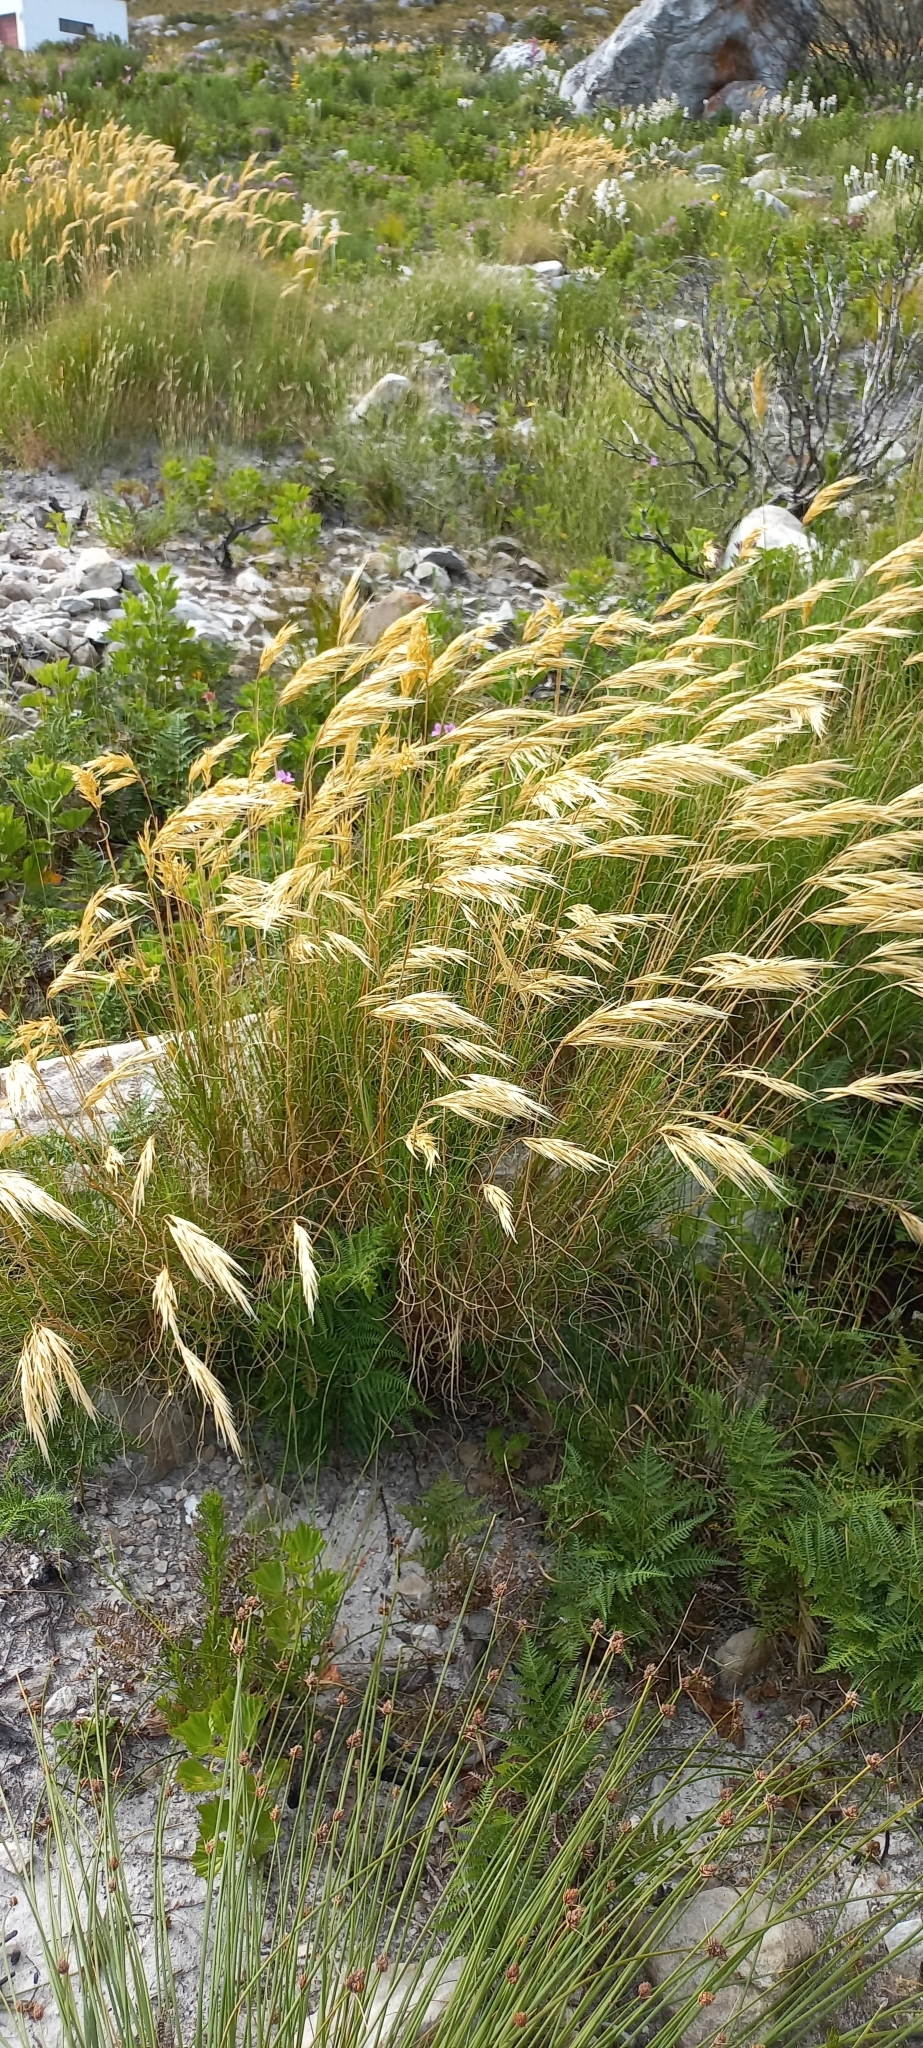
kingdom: Plantae
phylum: Tracheophyta
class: Liliopsida
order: Poales
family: Poaceae
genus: Pseudopentameris
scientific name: Pseudopentameris macrantha
